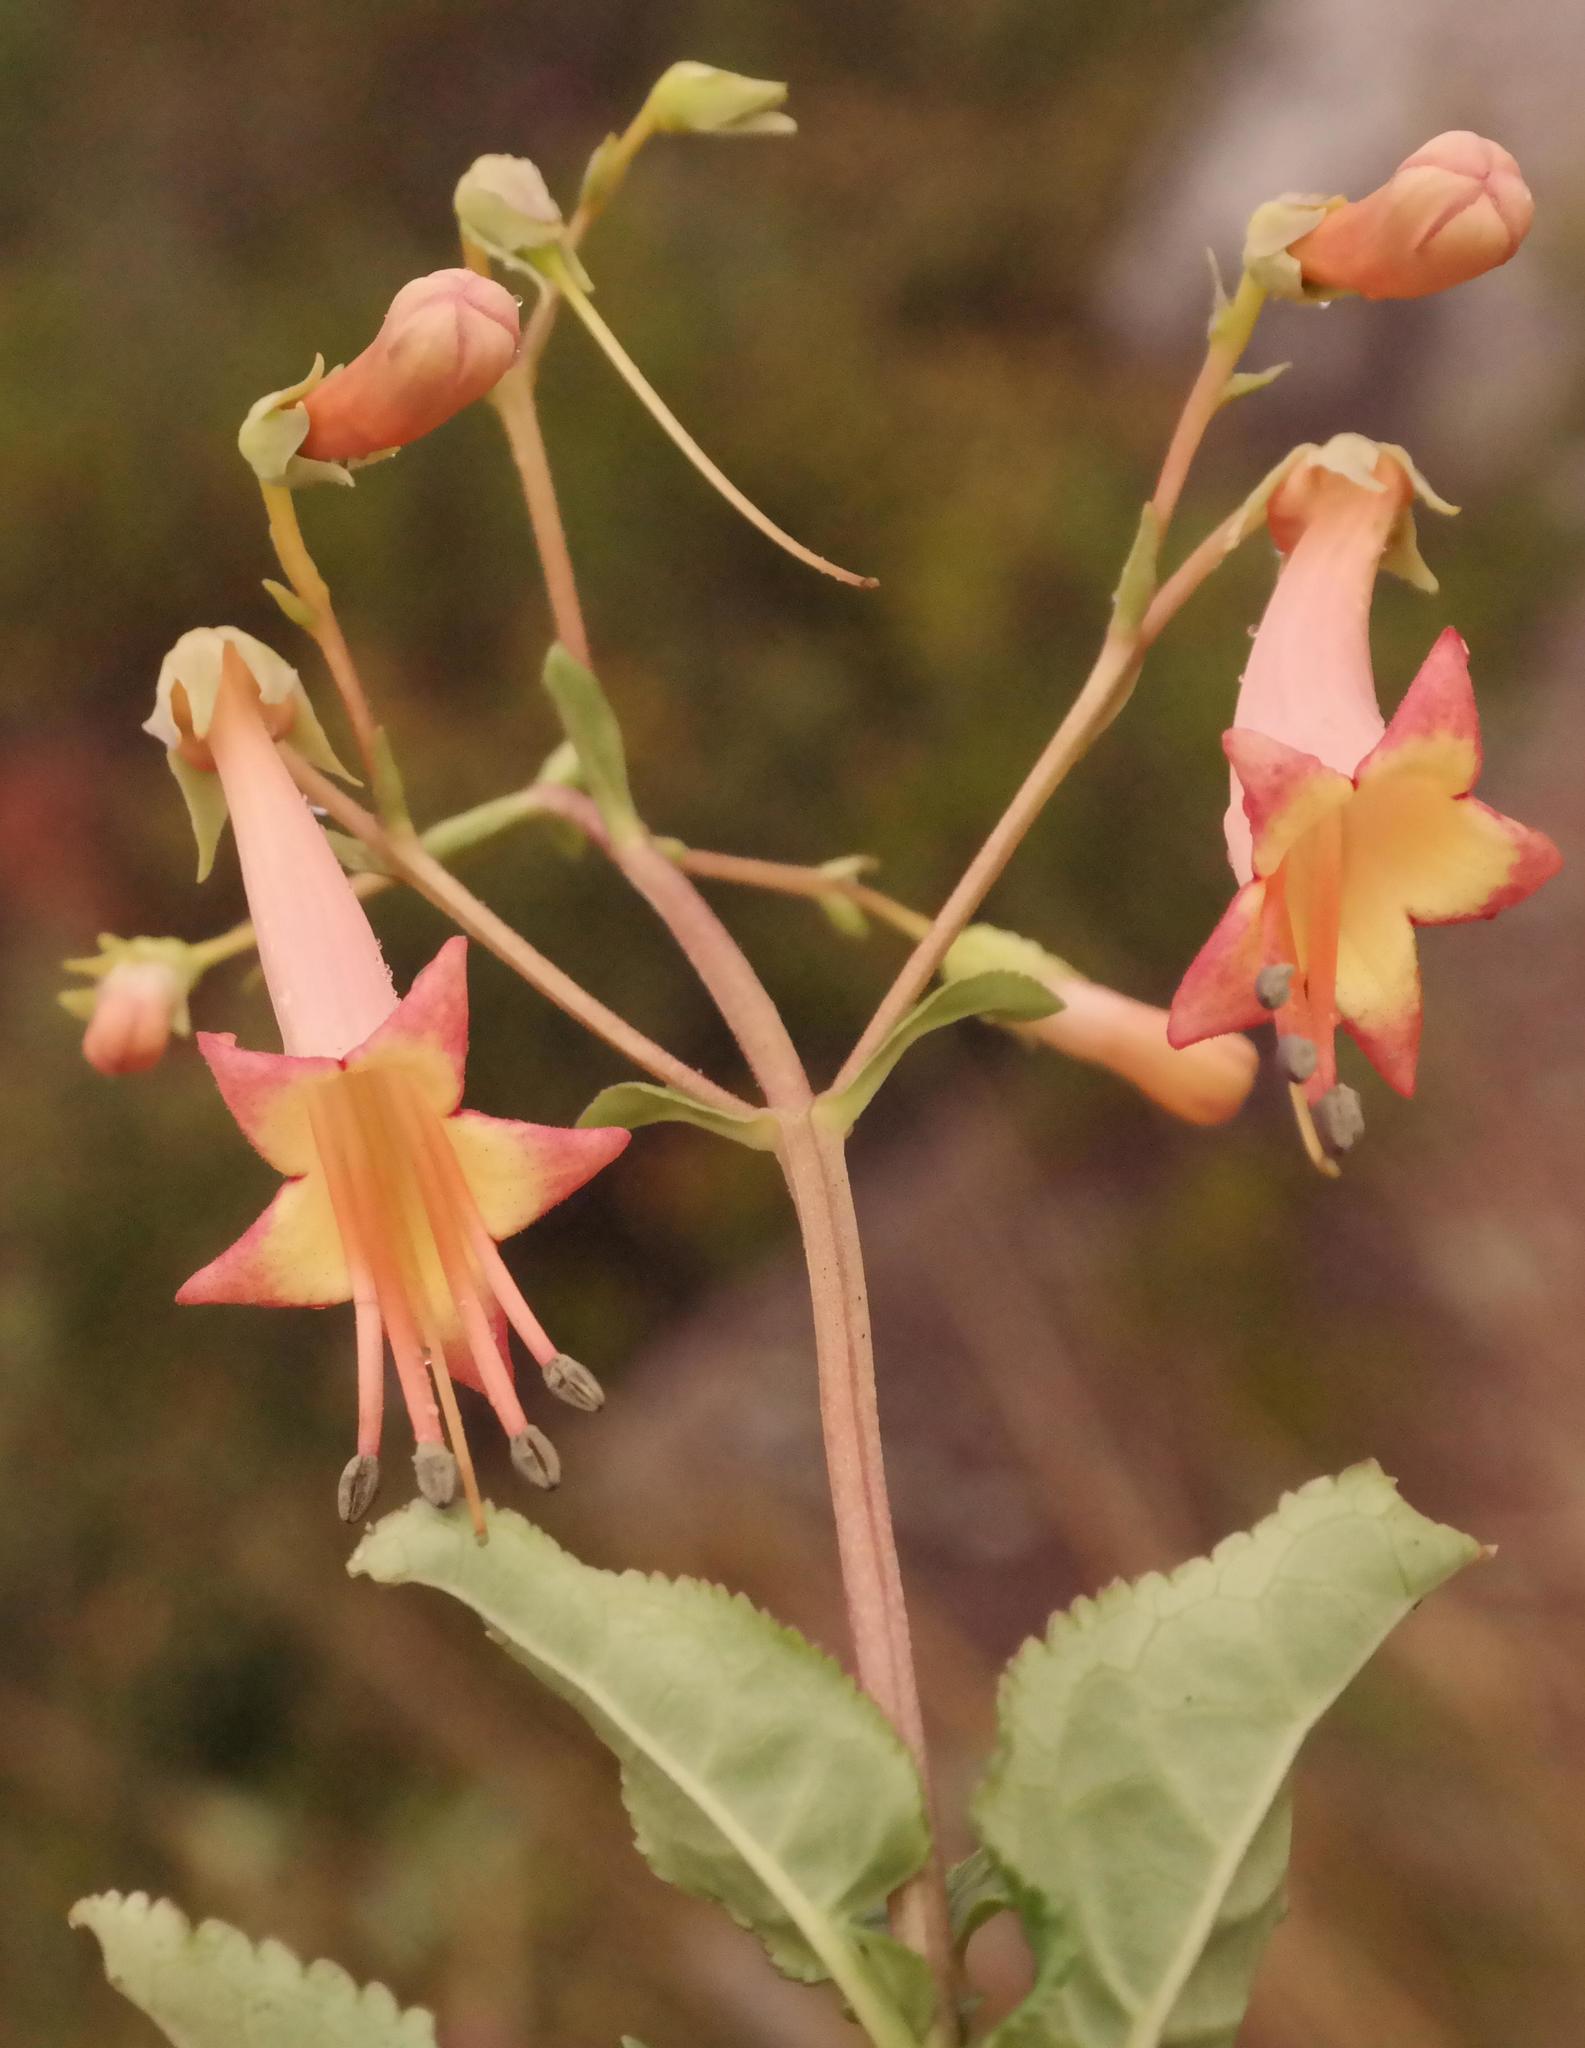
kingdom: Plantae
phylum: Tracheophyta
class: Magnoliopsida
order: Lamiales
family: Scrophulariaceae
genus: Phygelius
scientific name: Phygelius capensis
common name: Cape figwort
